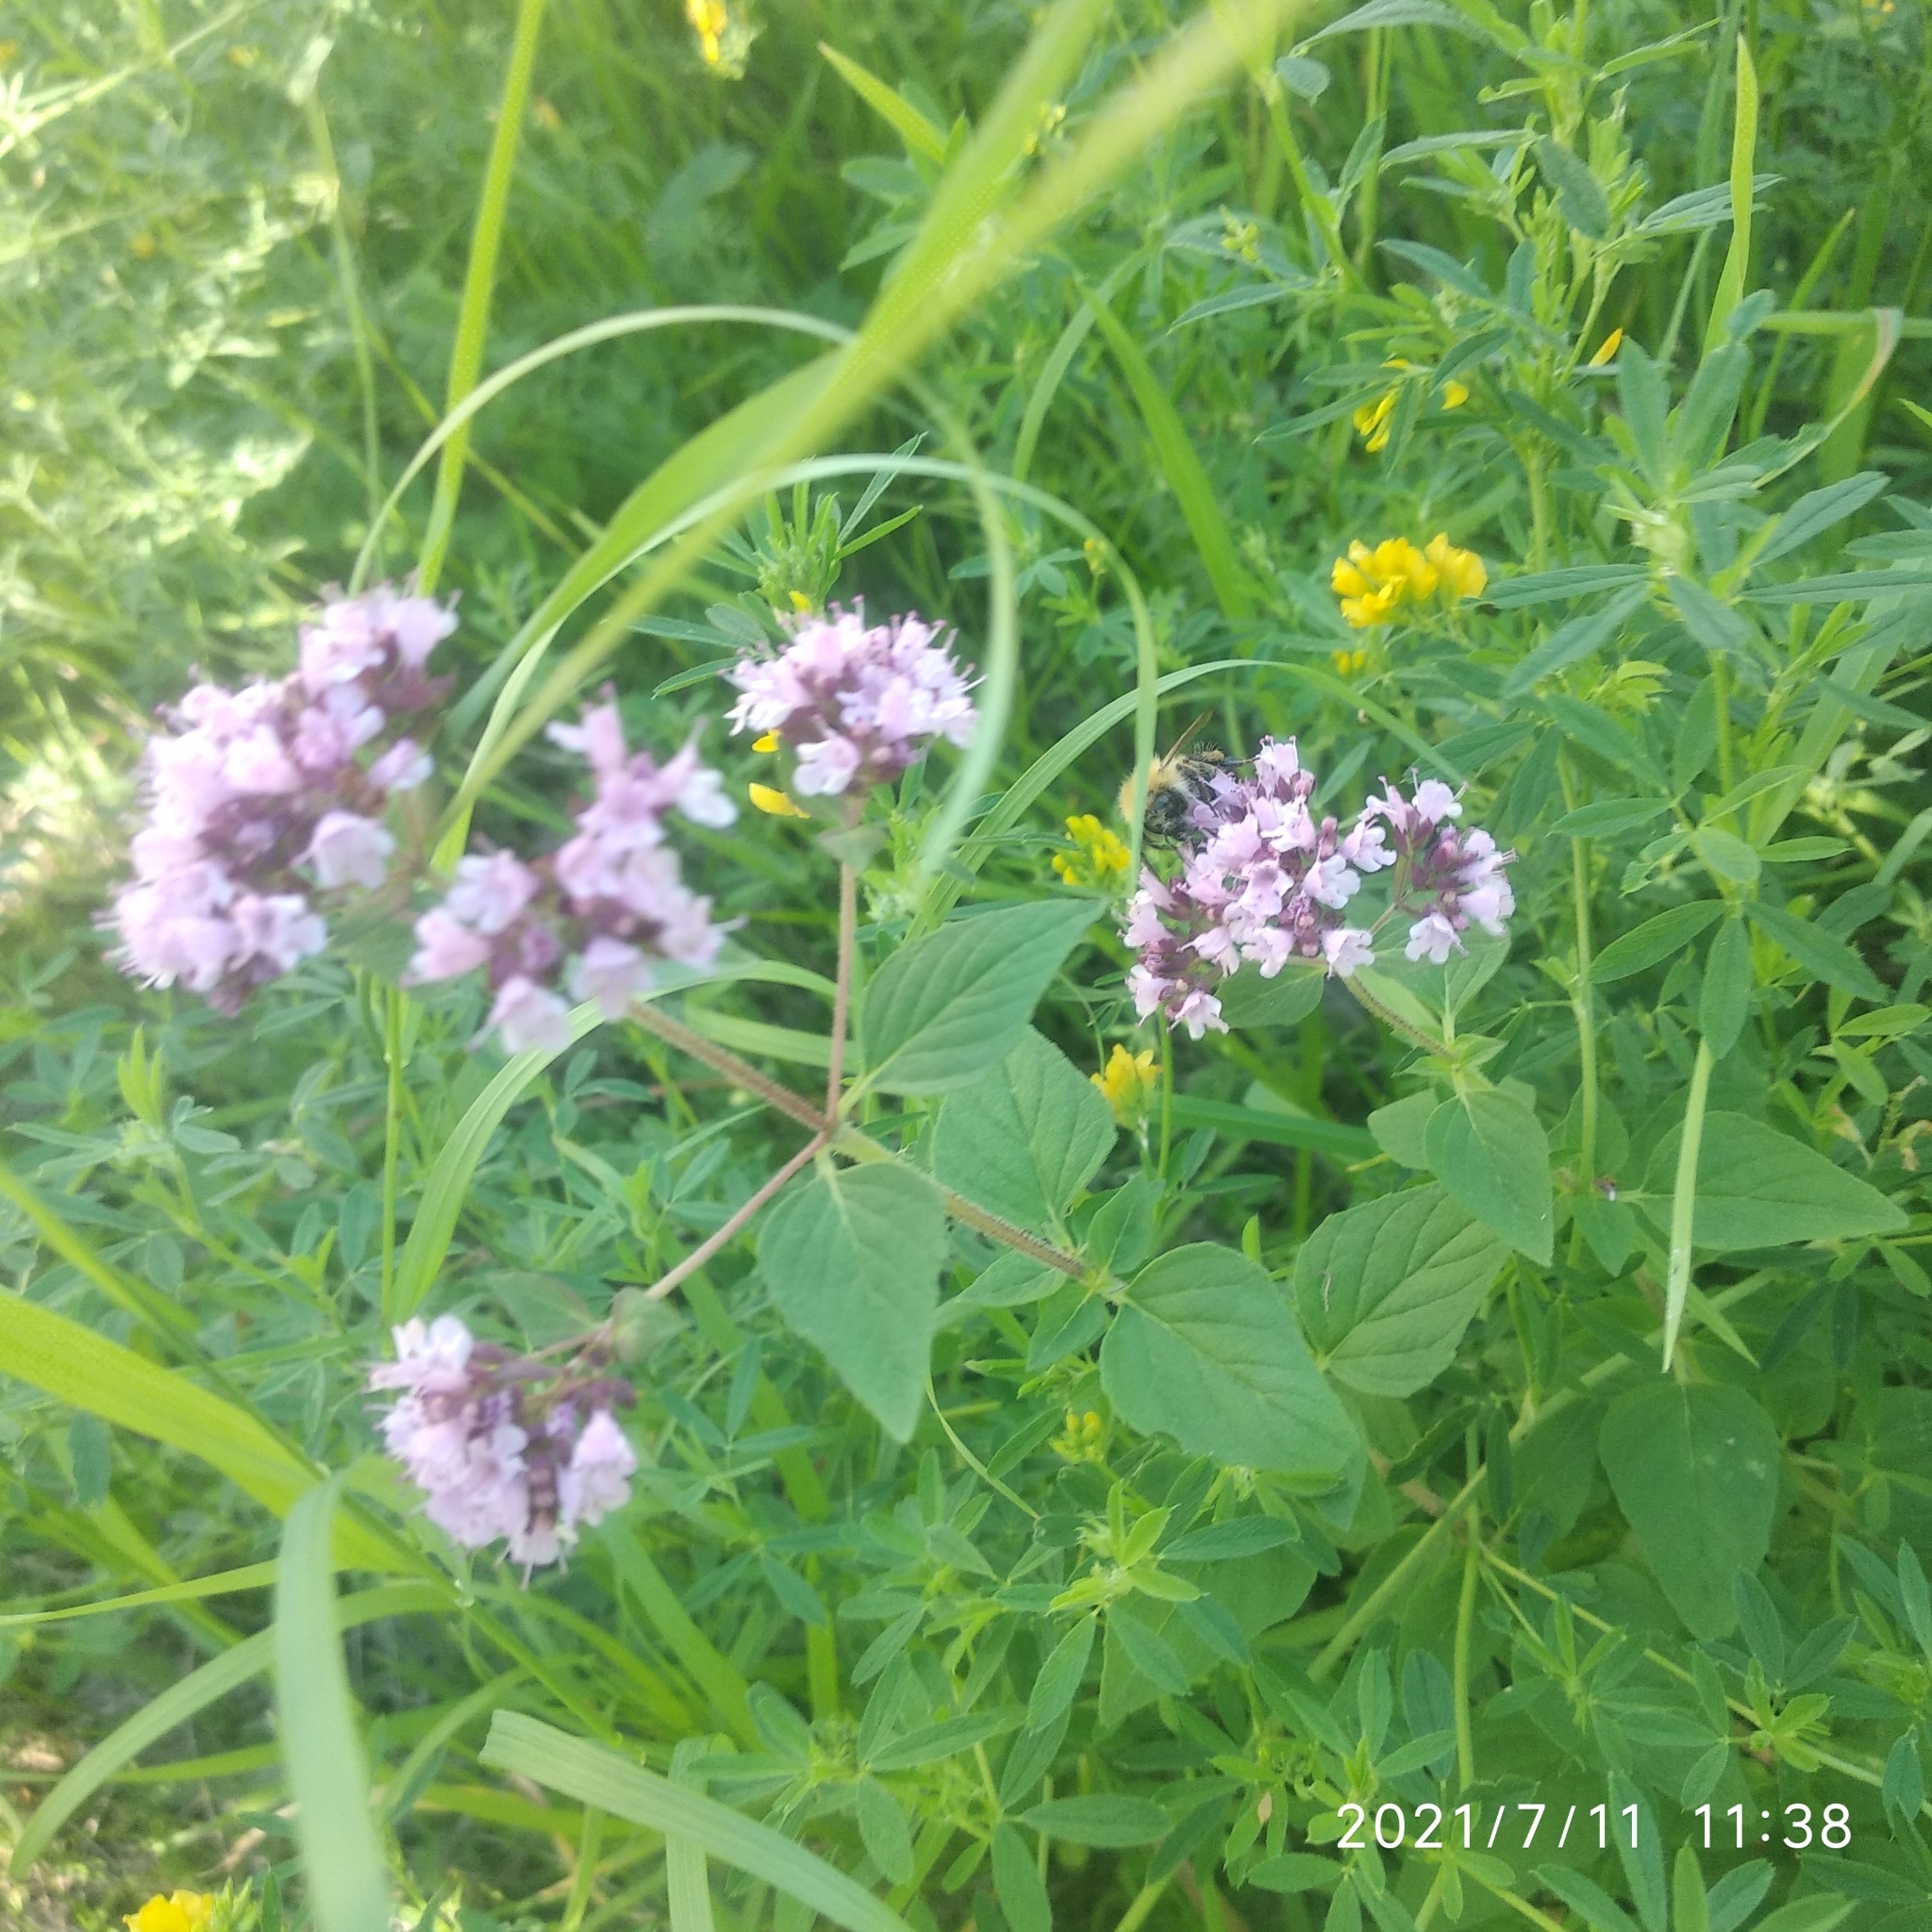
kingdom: Plantae
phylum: Tracheophyta
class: Magnoliopsida
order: Lamiales
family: Lamiaceae
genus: Origanum
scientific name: Origanum vulgare
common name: Wild marjoram
